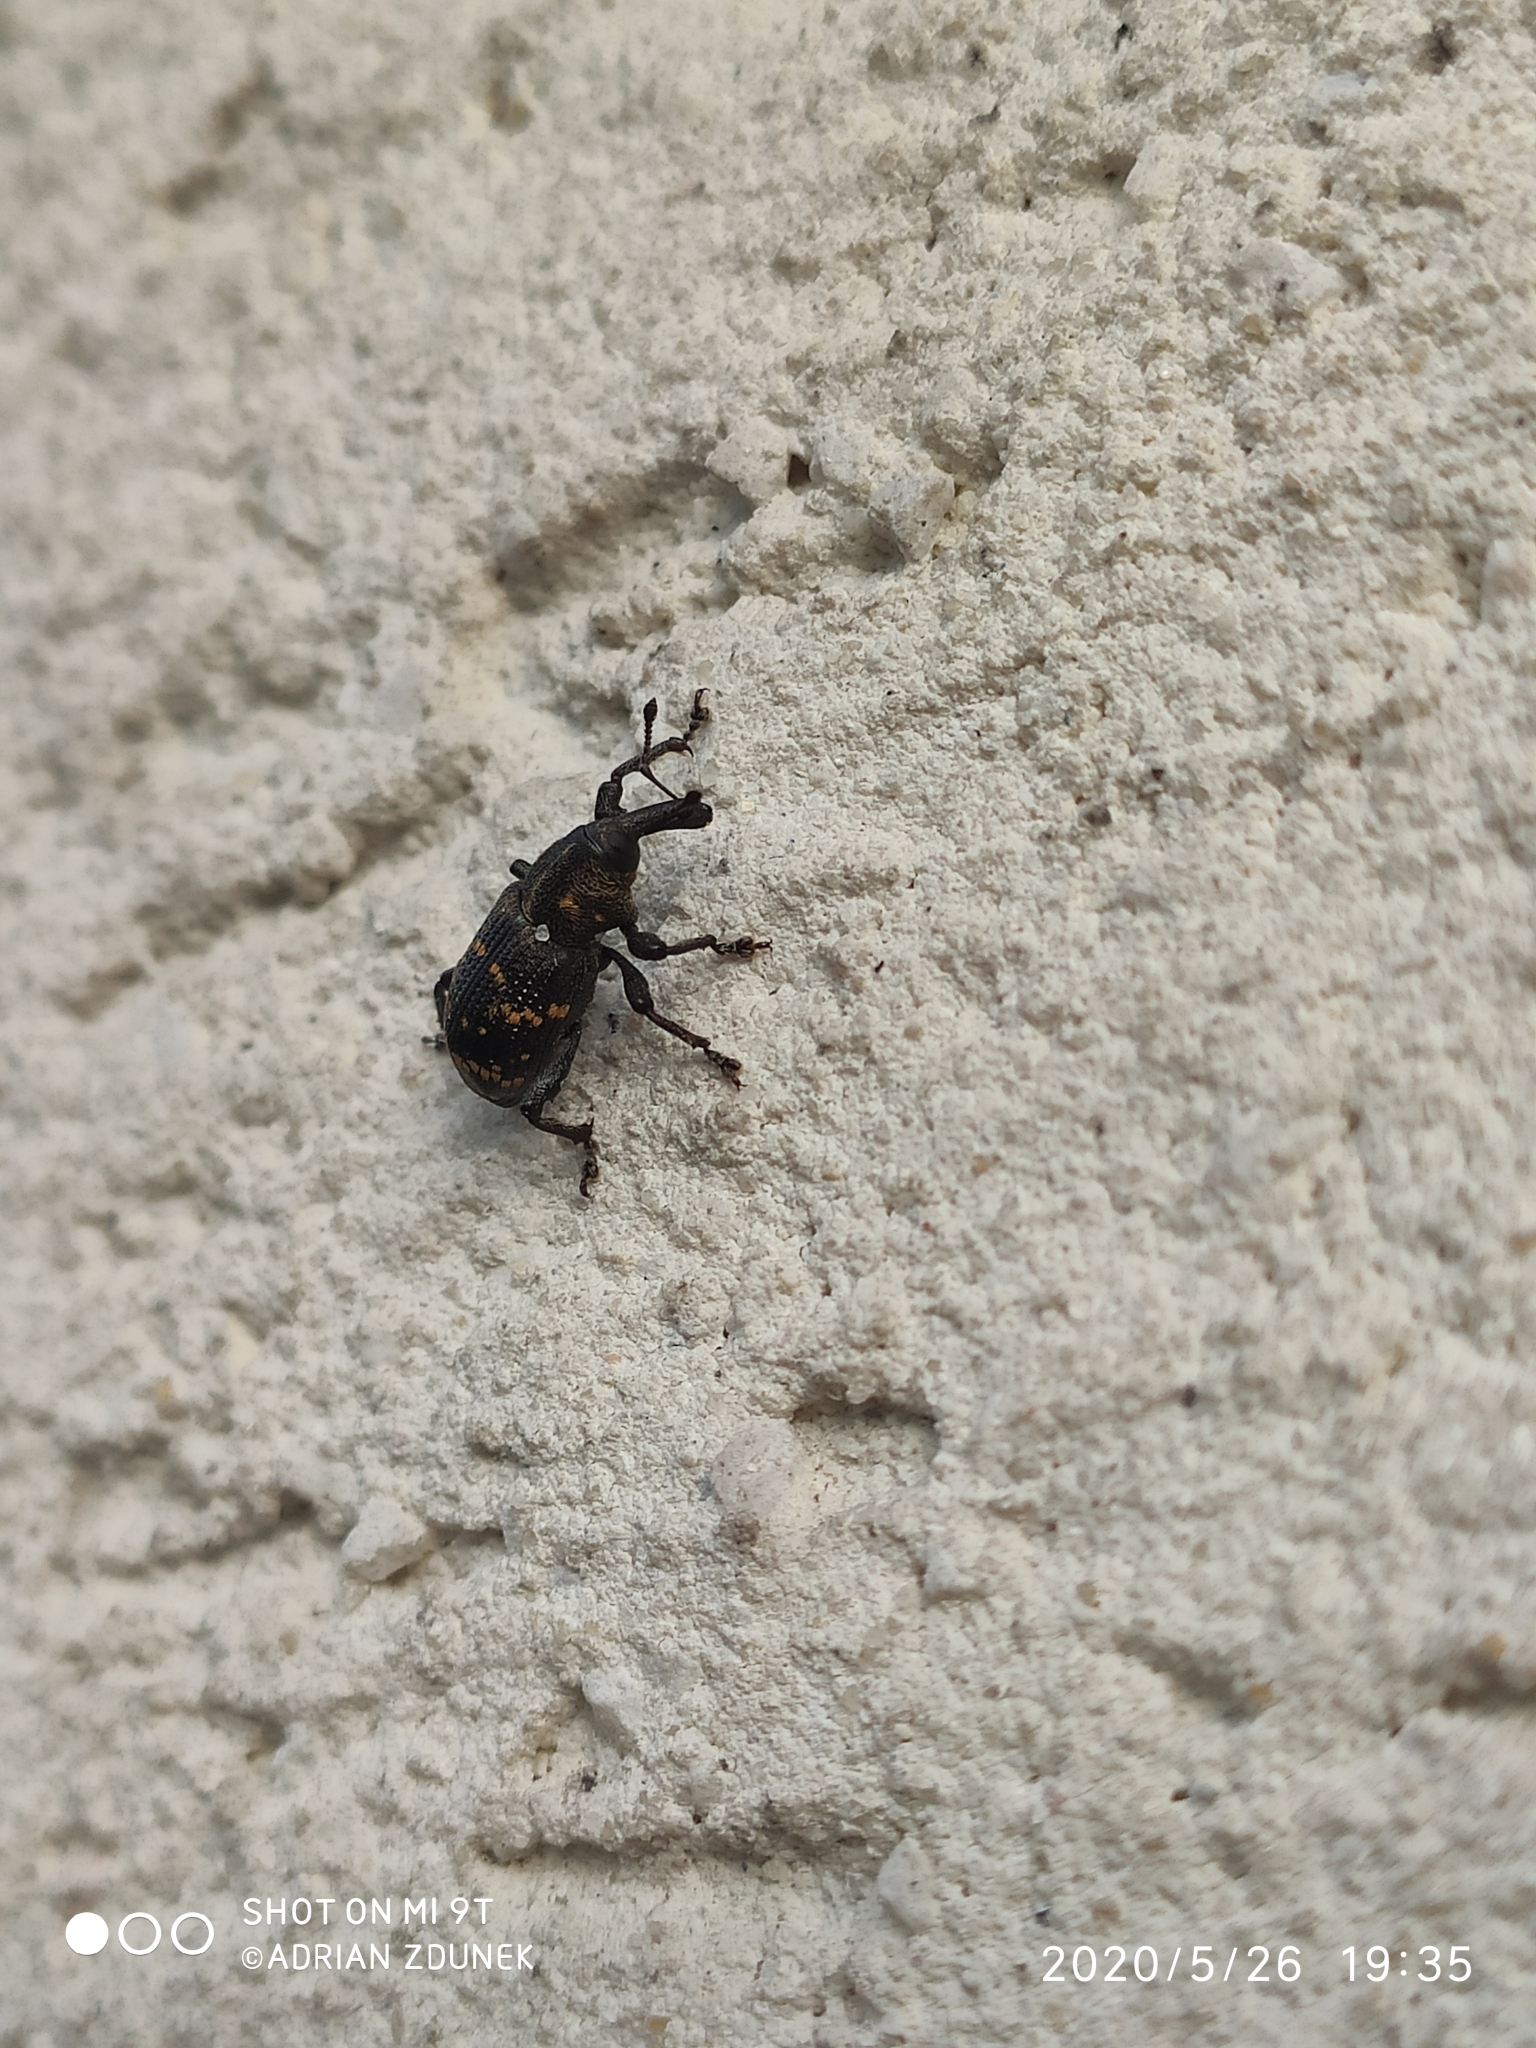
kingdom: Animalia
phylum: Arthropoda
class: Insecta
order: Coleoptera
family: Curculionidae
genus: Hylobius
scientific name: Hylobius abietis
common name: Large pine weevil
